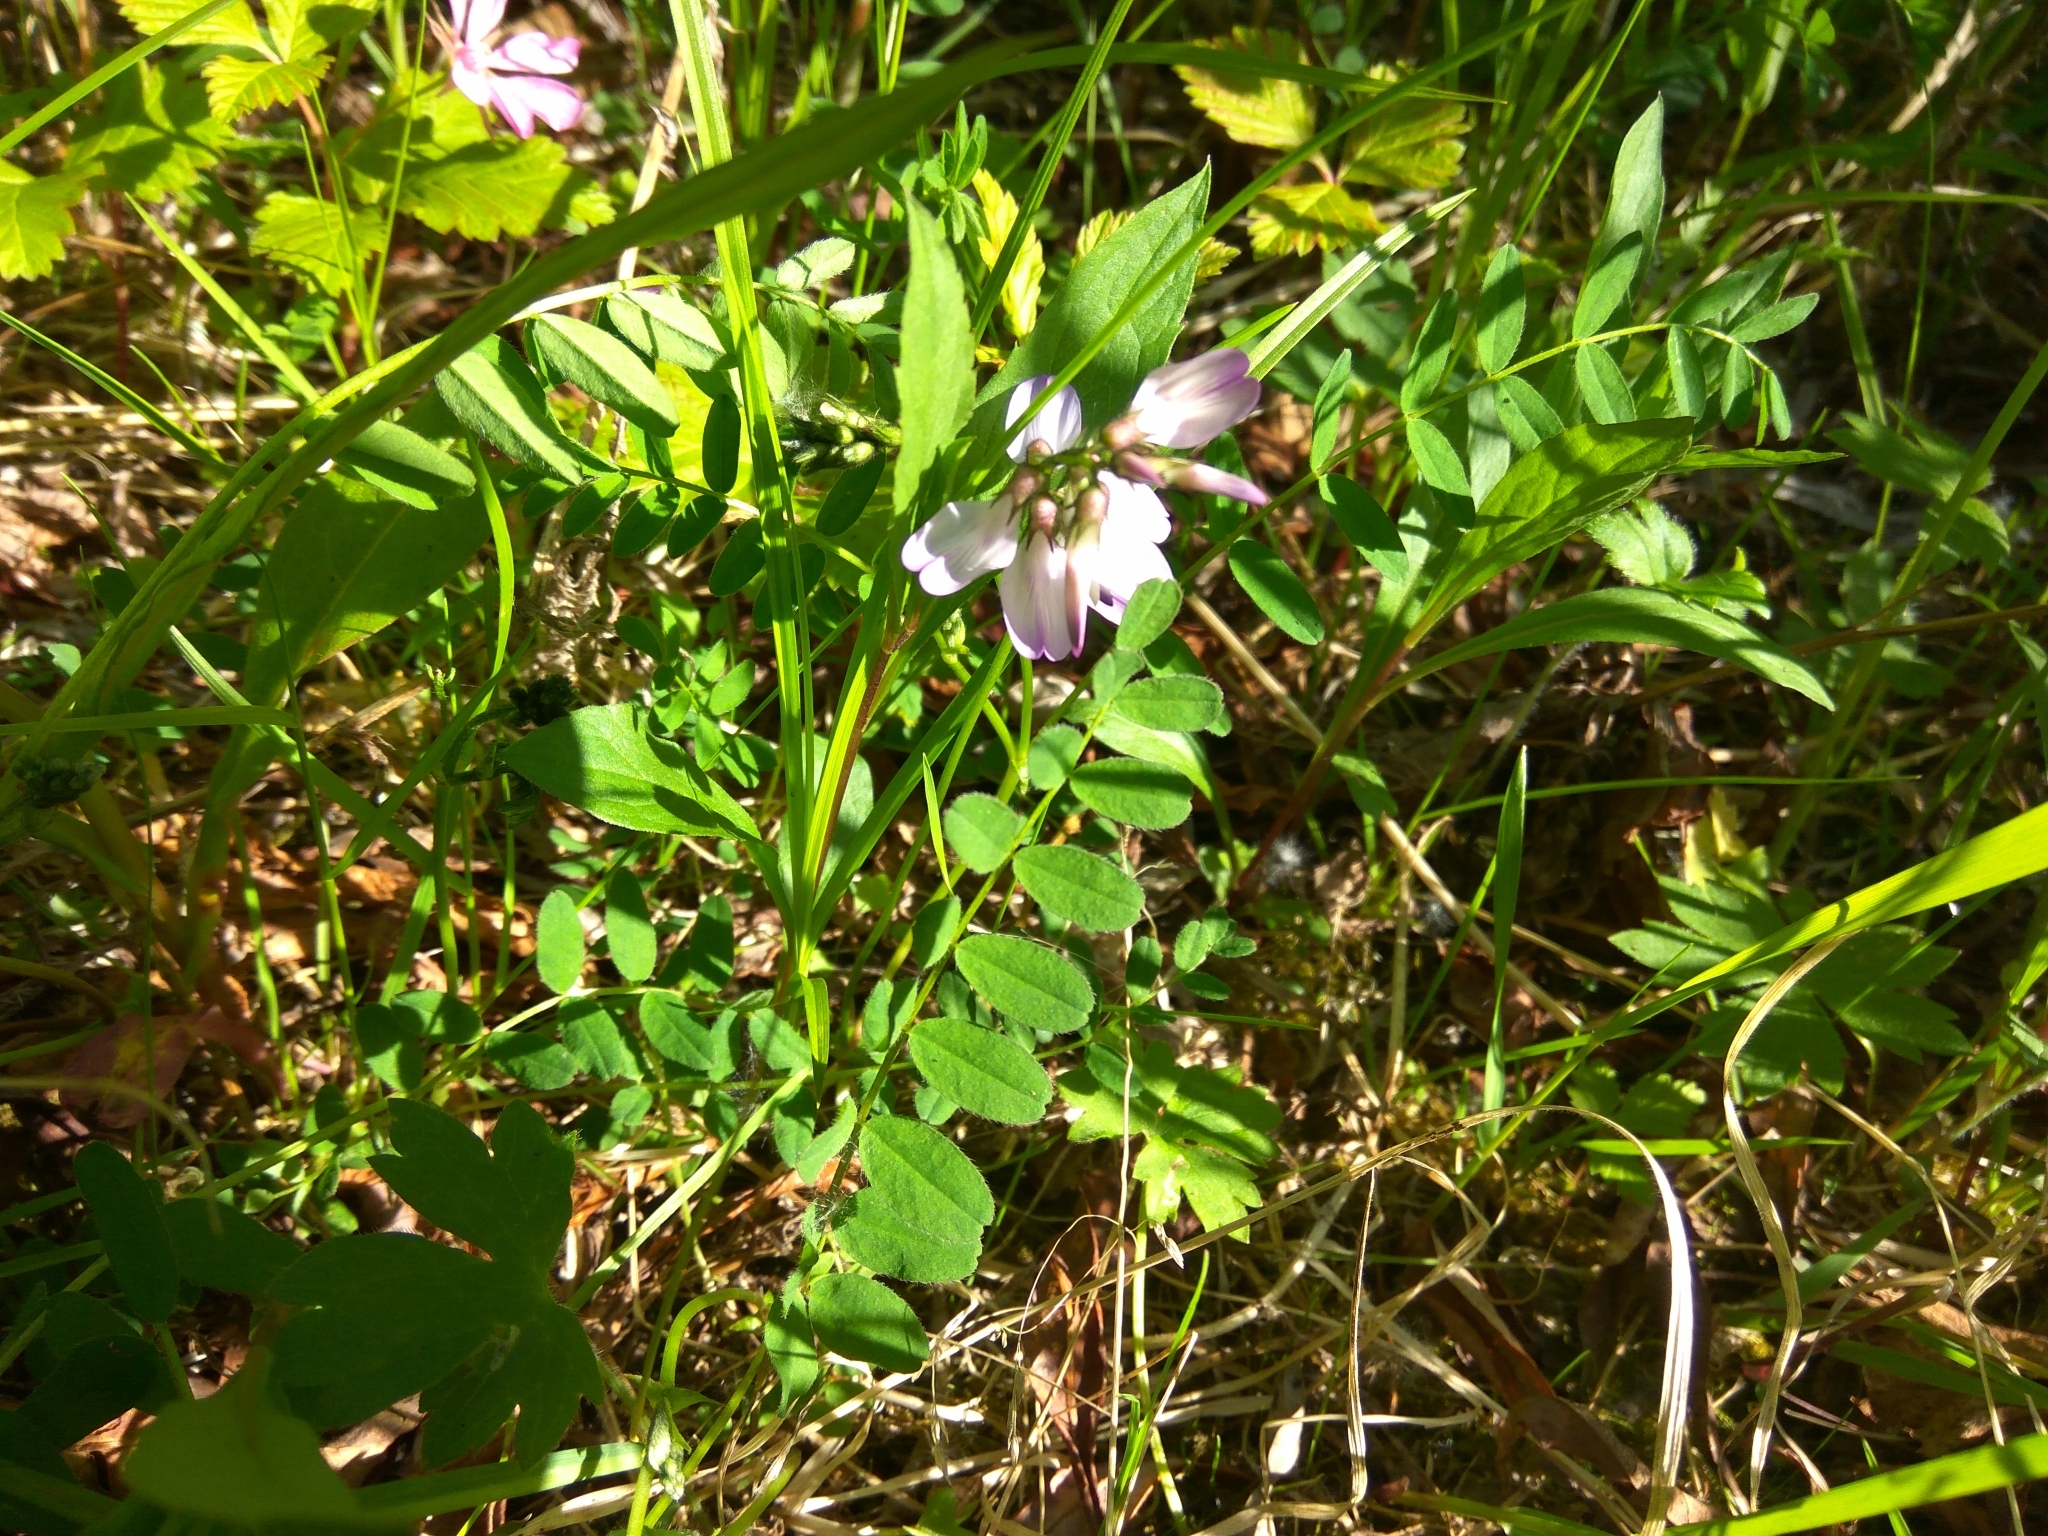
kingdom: Plantae
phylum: Tracheophyta
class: Magnoliopsida
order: Fabales
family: Fabaceae
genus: Astragalus
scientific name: Astragalus alpinus
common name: Alpine milk-vetch
